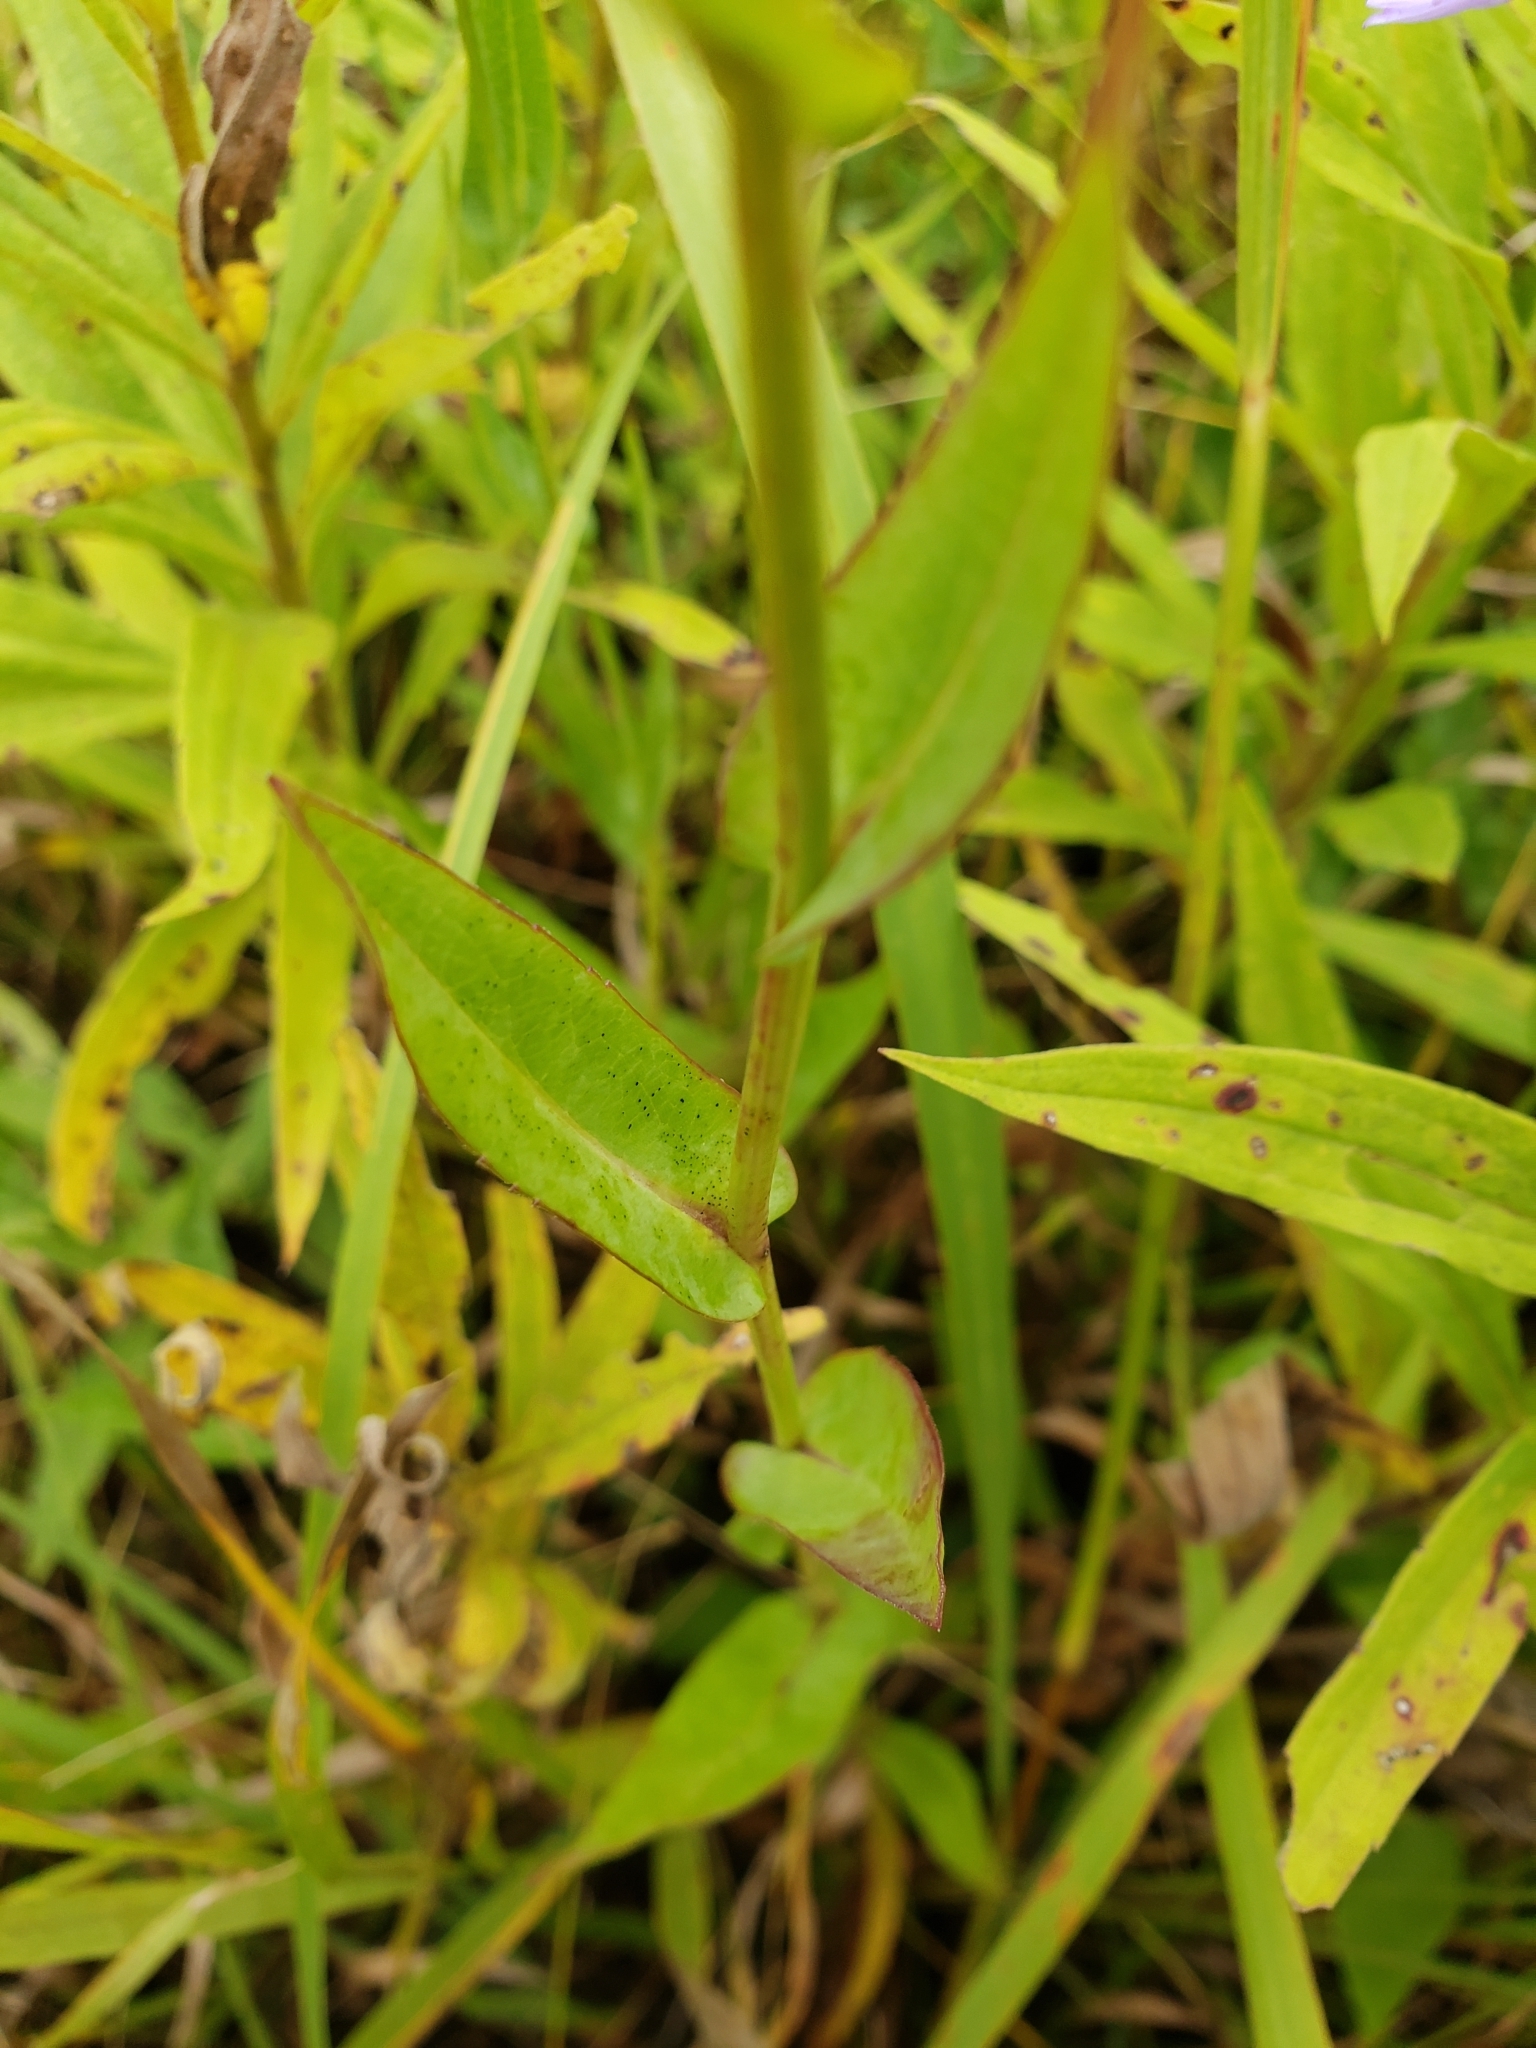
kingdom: Plantae
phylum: Tracheophyta
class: Magnoliopsida
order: Asterales
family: Asteraceae
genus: Symphyotrichum
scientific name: Symphyotrichum laeve
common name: Glaucous aster
